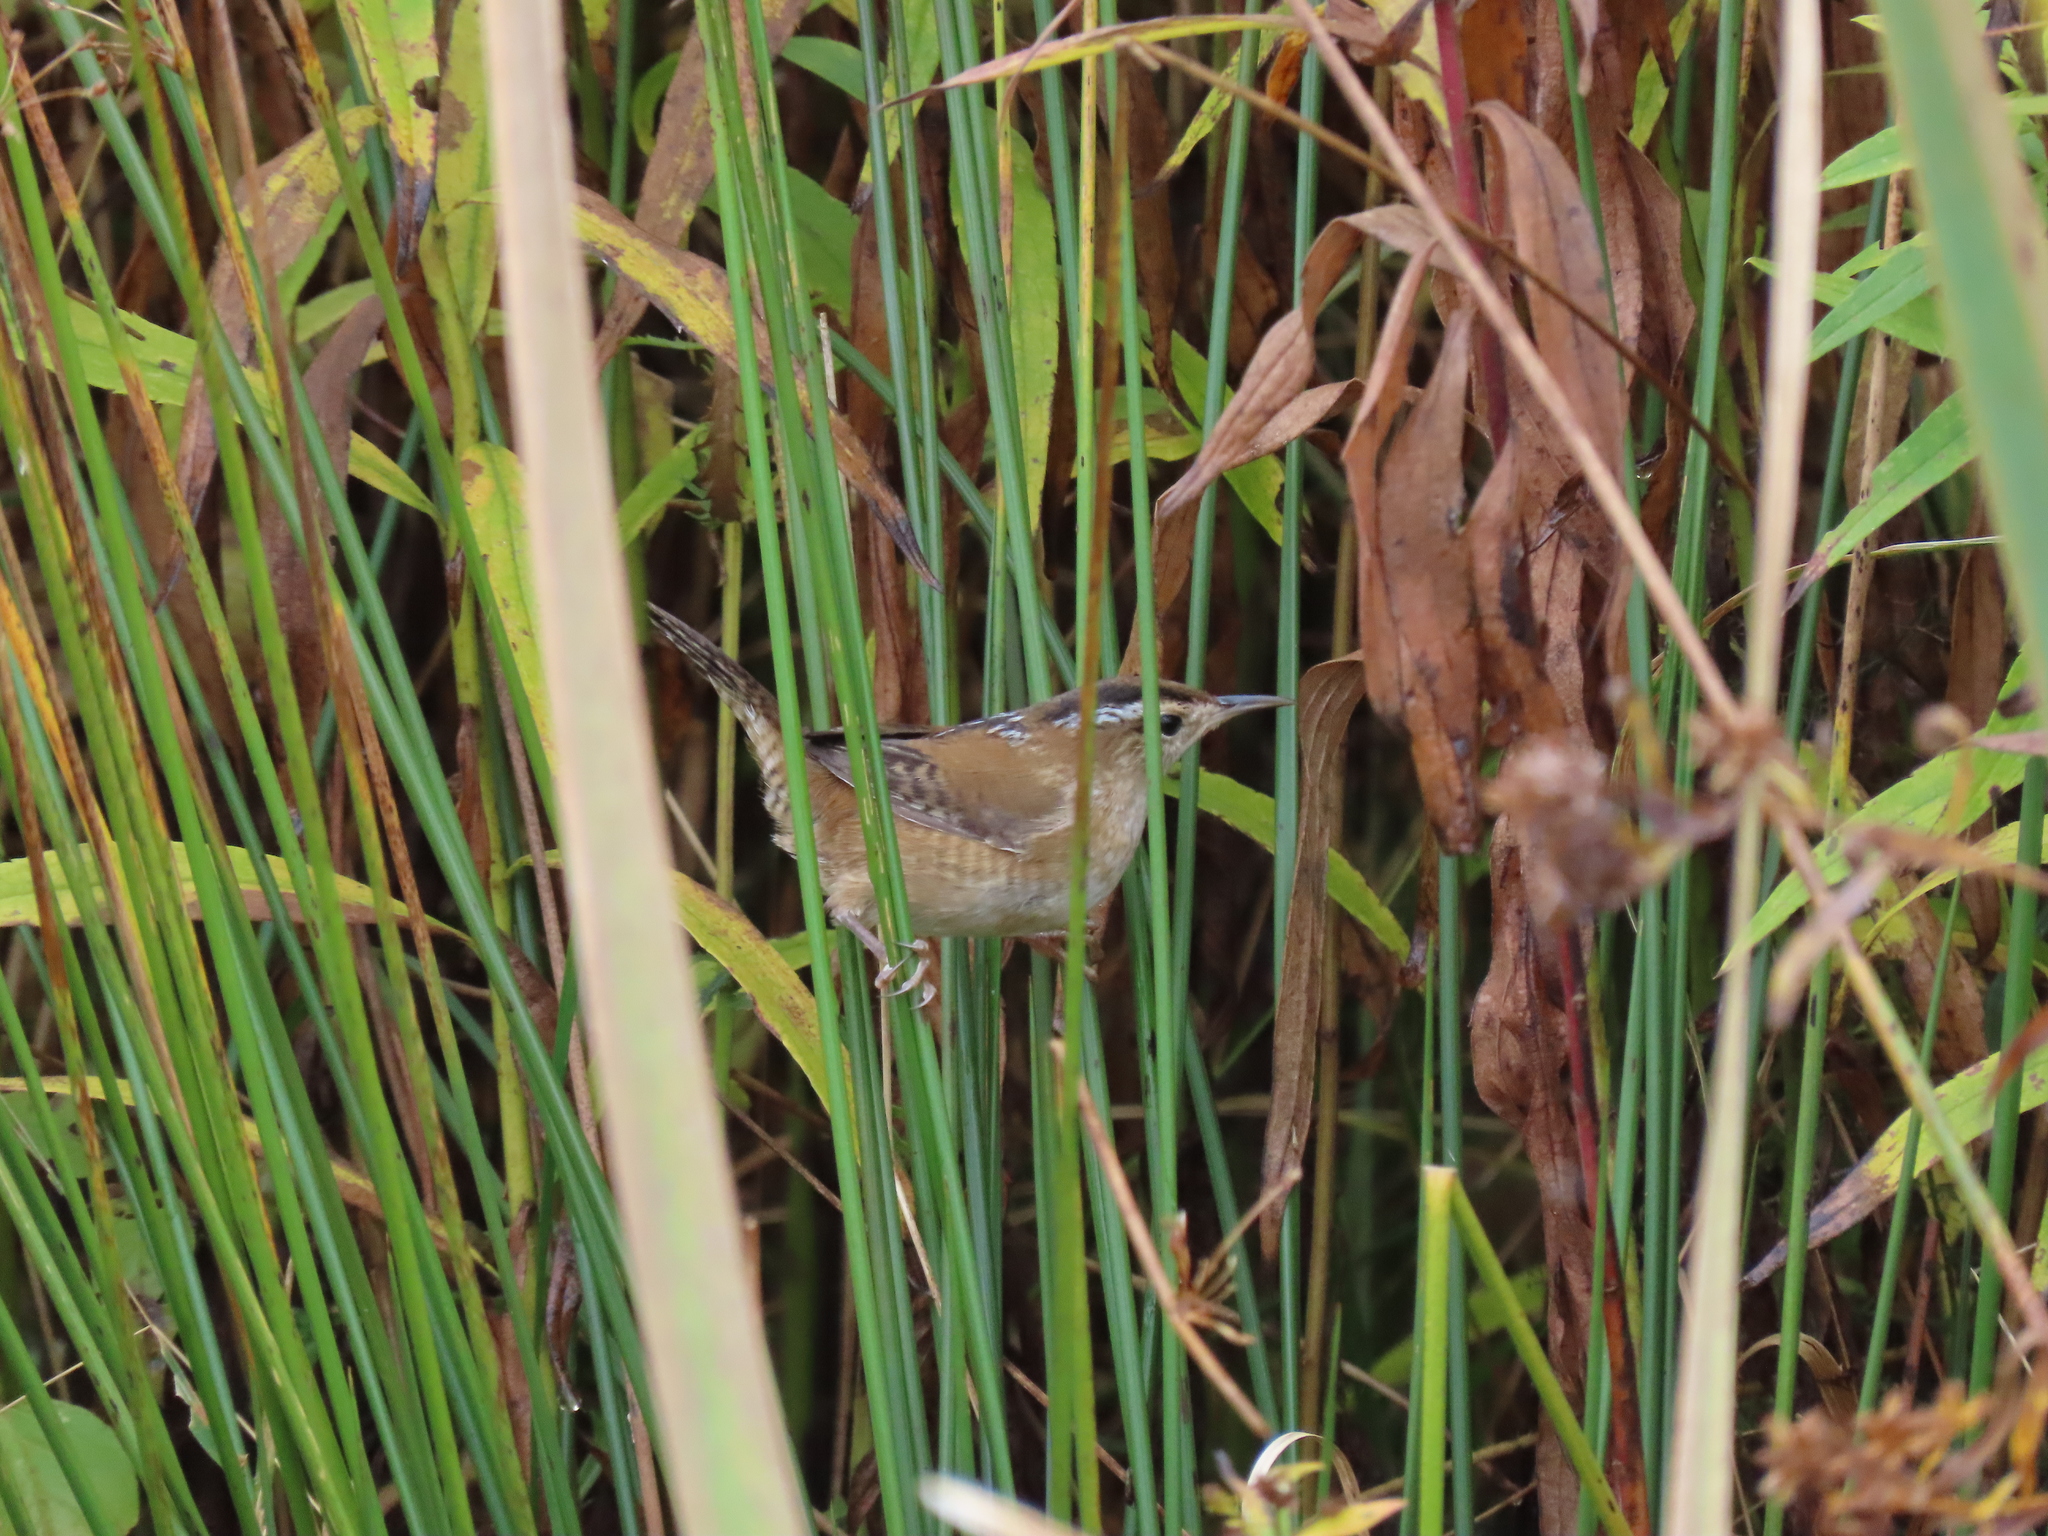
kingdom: Animalia
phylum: Chordata
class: Aves
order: Passeriformes
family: Troglodytidae
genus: Cistothorus
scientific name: Cistothorus palustris
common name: Marsh wren
